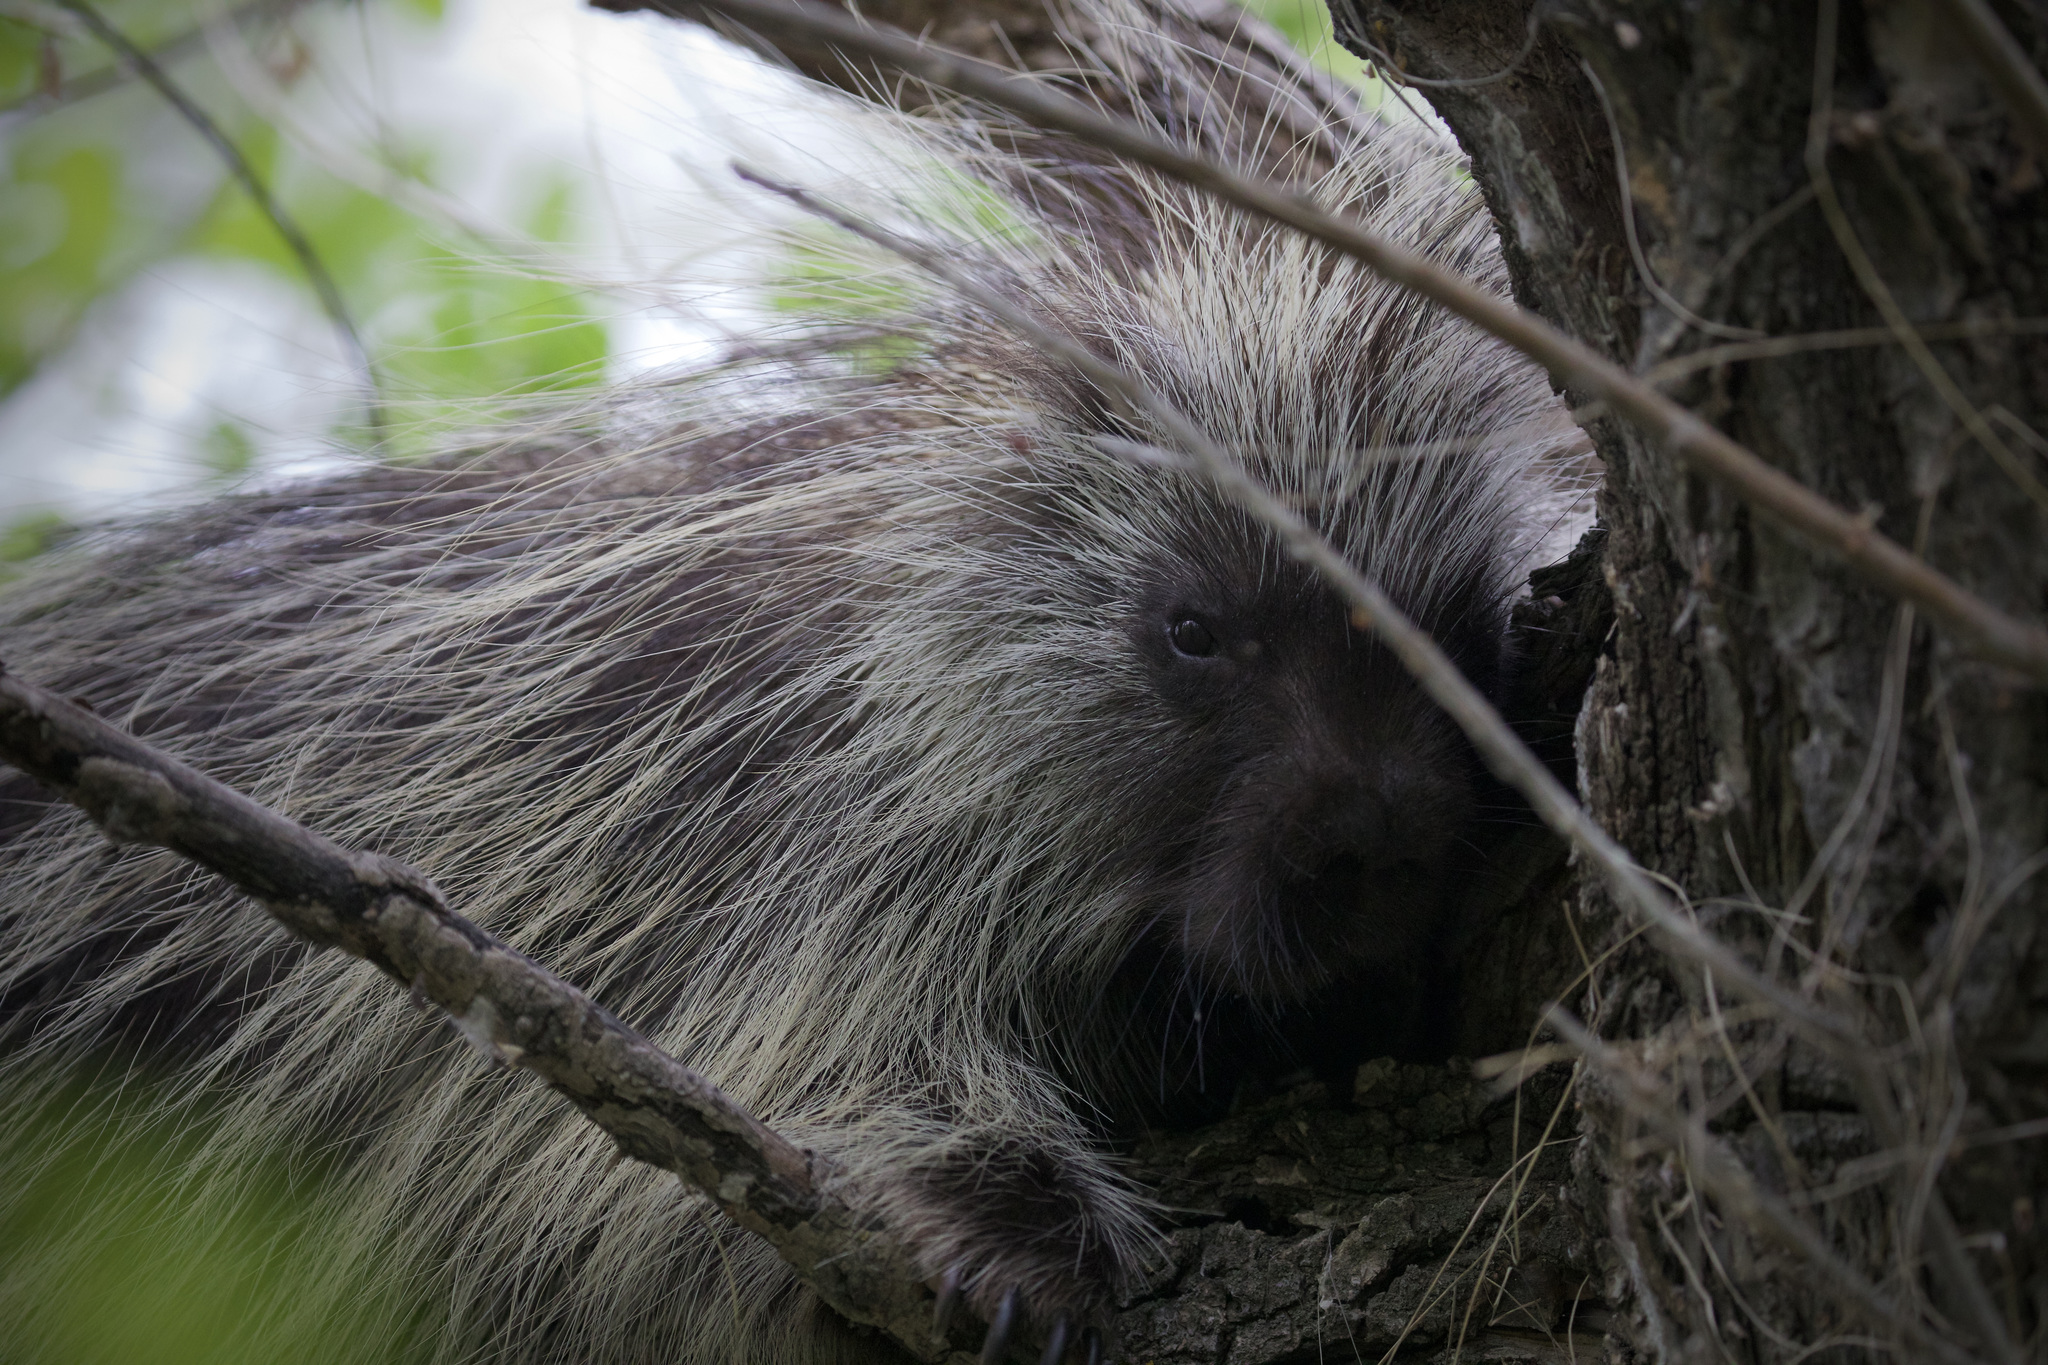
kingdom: Animalia
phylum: Chordata
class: Mammalia
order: Rodentia
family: Erethizontidae
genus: Erethizon
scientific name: Erethizon dorsatus
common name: North american porcupine
